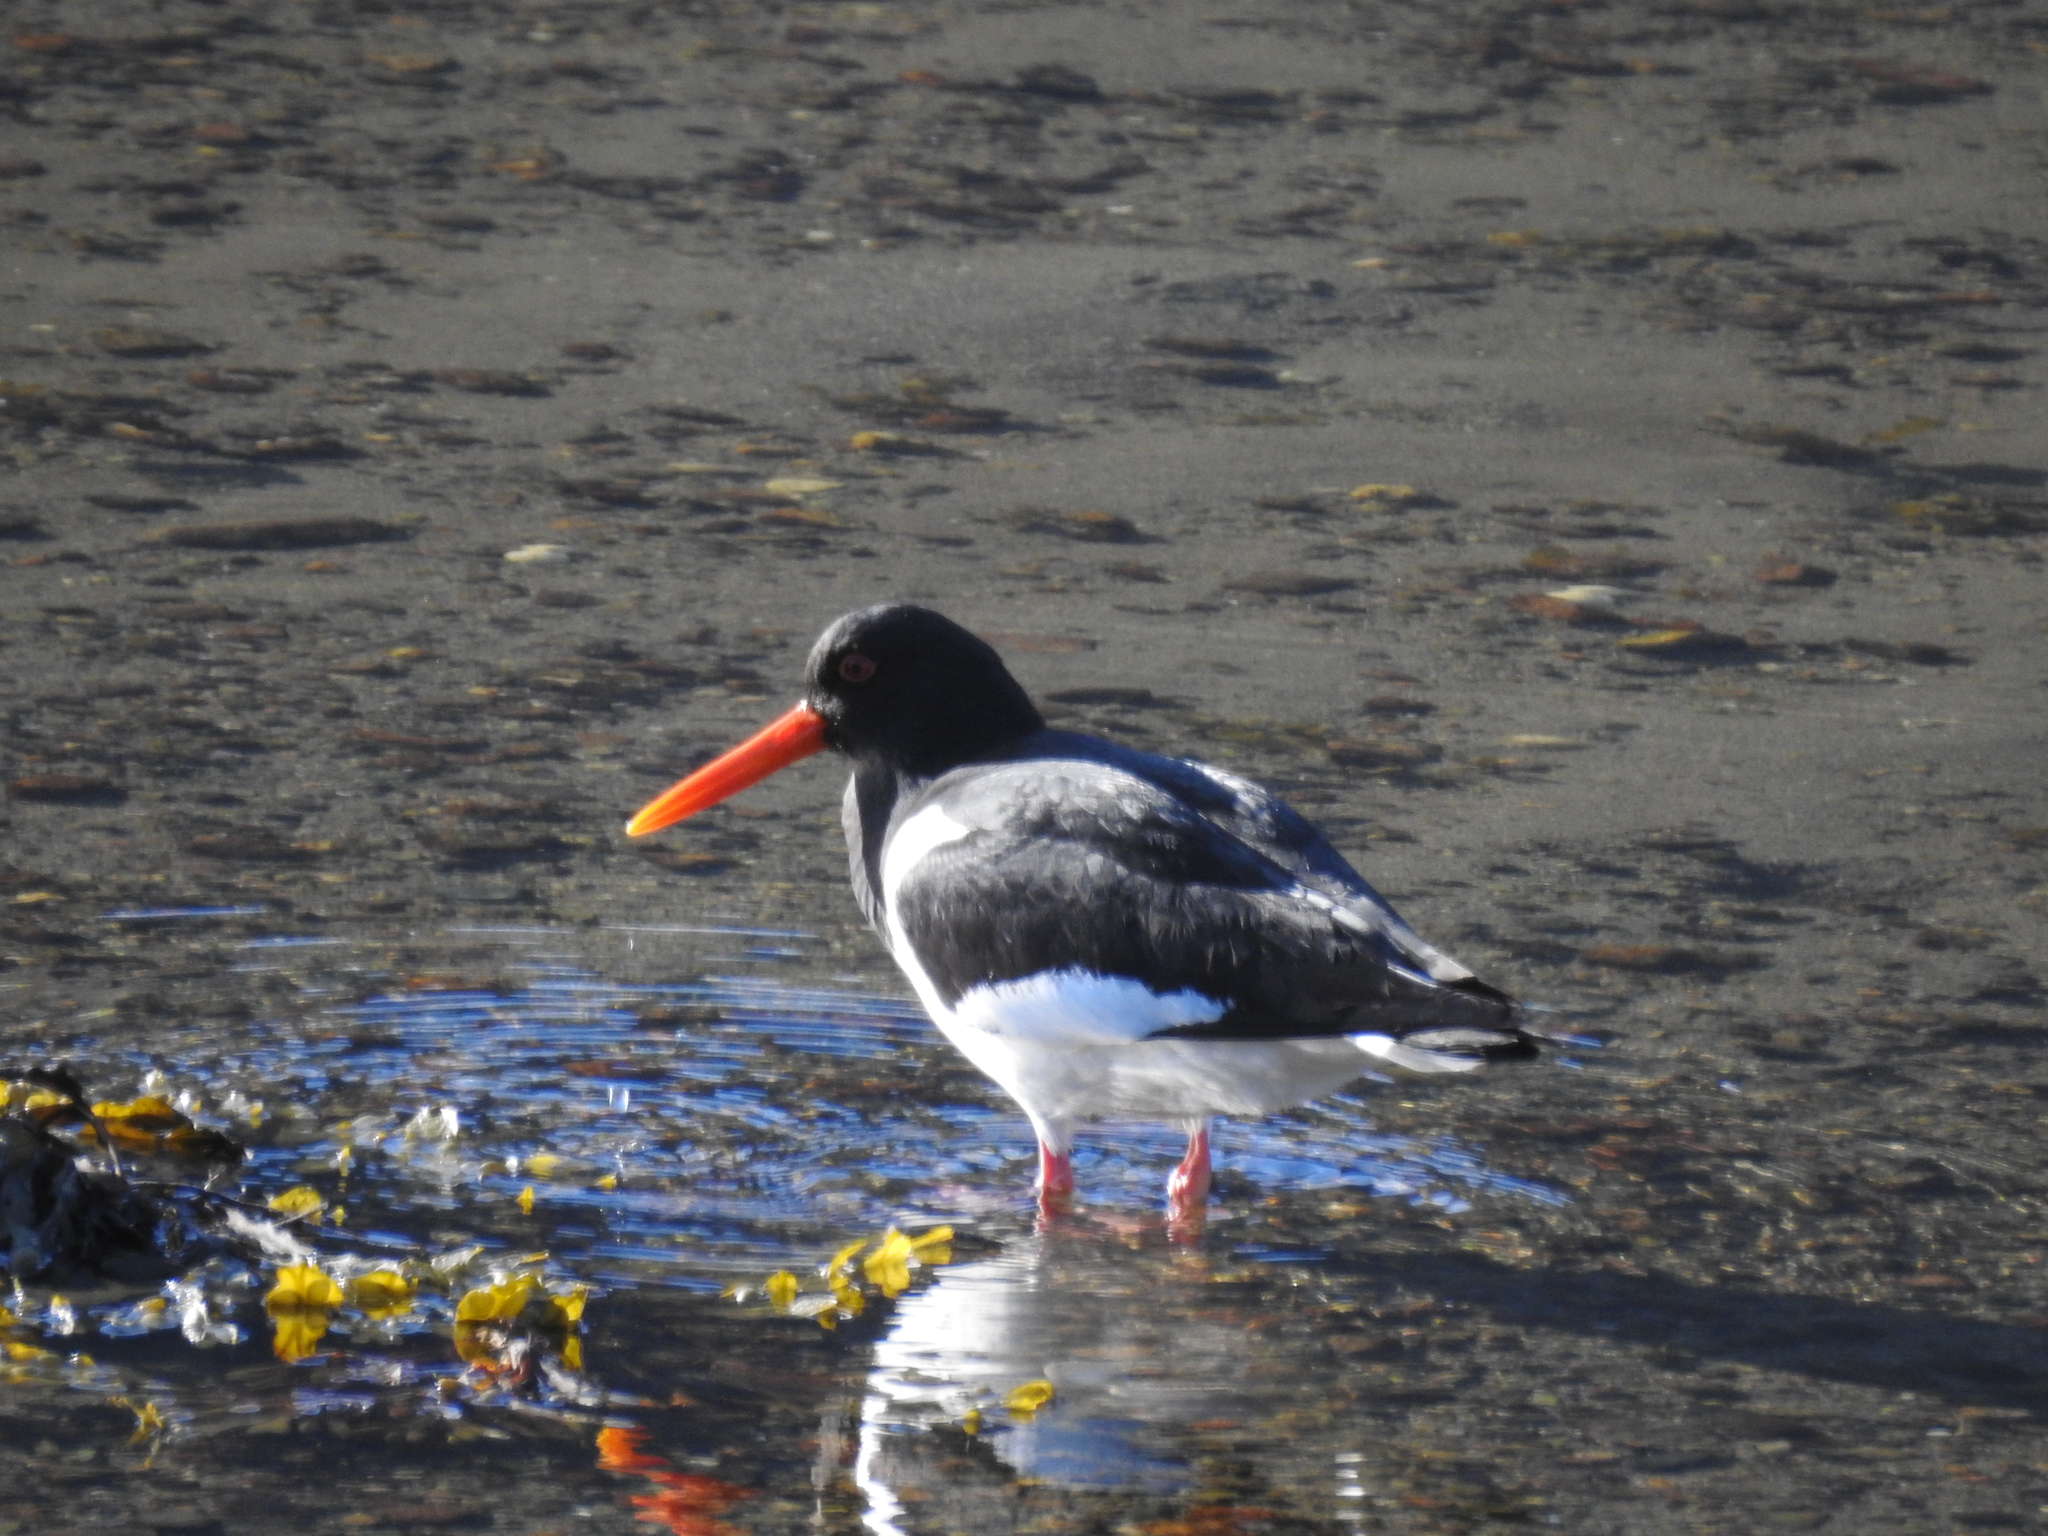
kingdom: Animalia
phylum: Chordata
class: Aves
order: Charadriiformes
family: Haematopodidae
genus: Haematopus
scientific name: Haematopus ostralegus
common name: Eurasian oystercatcher
